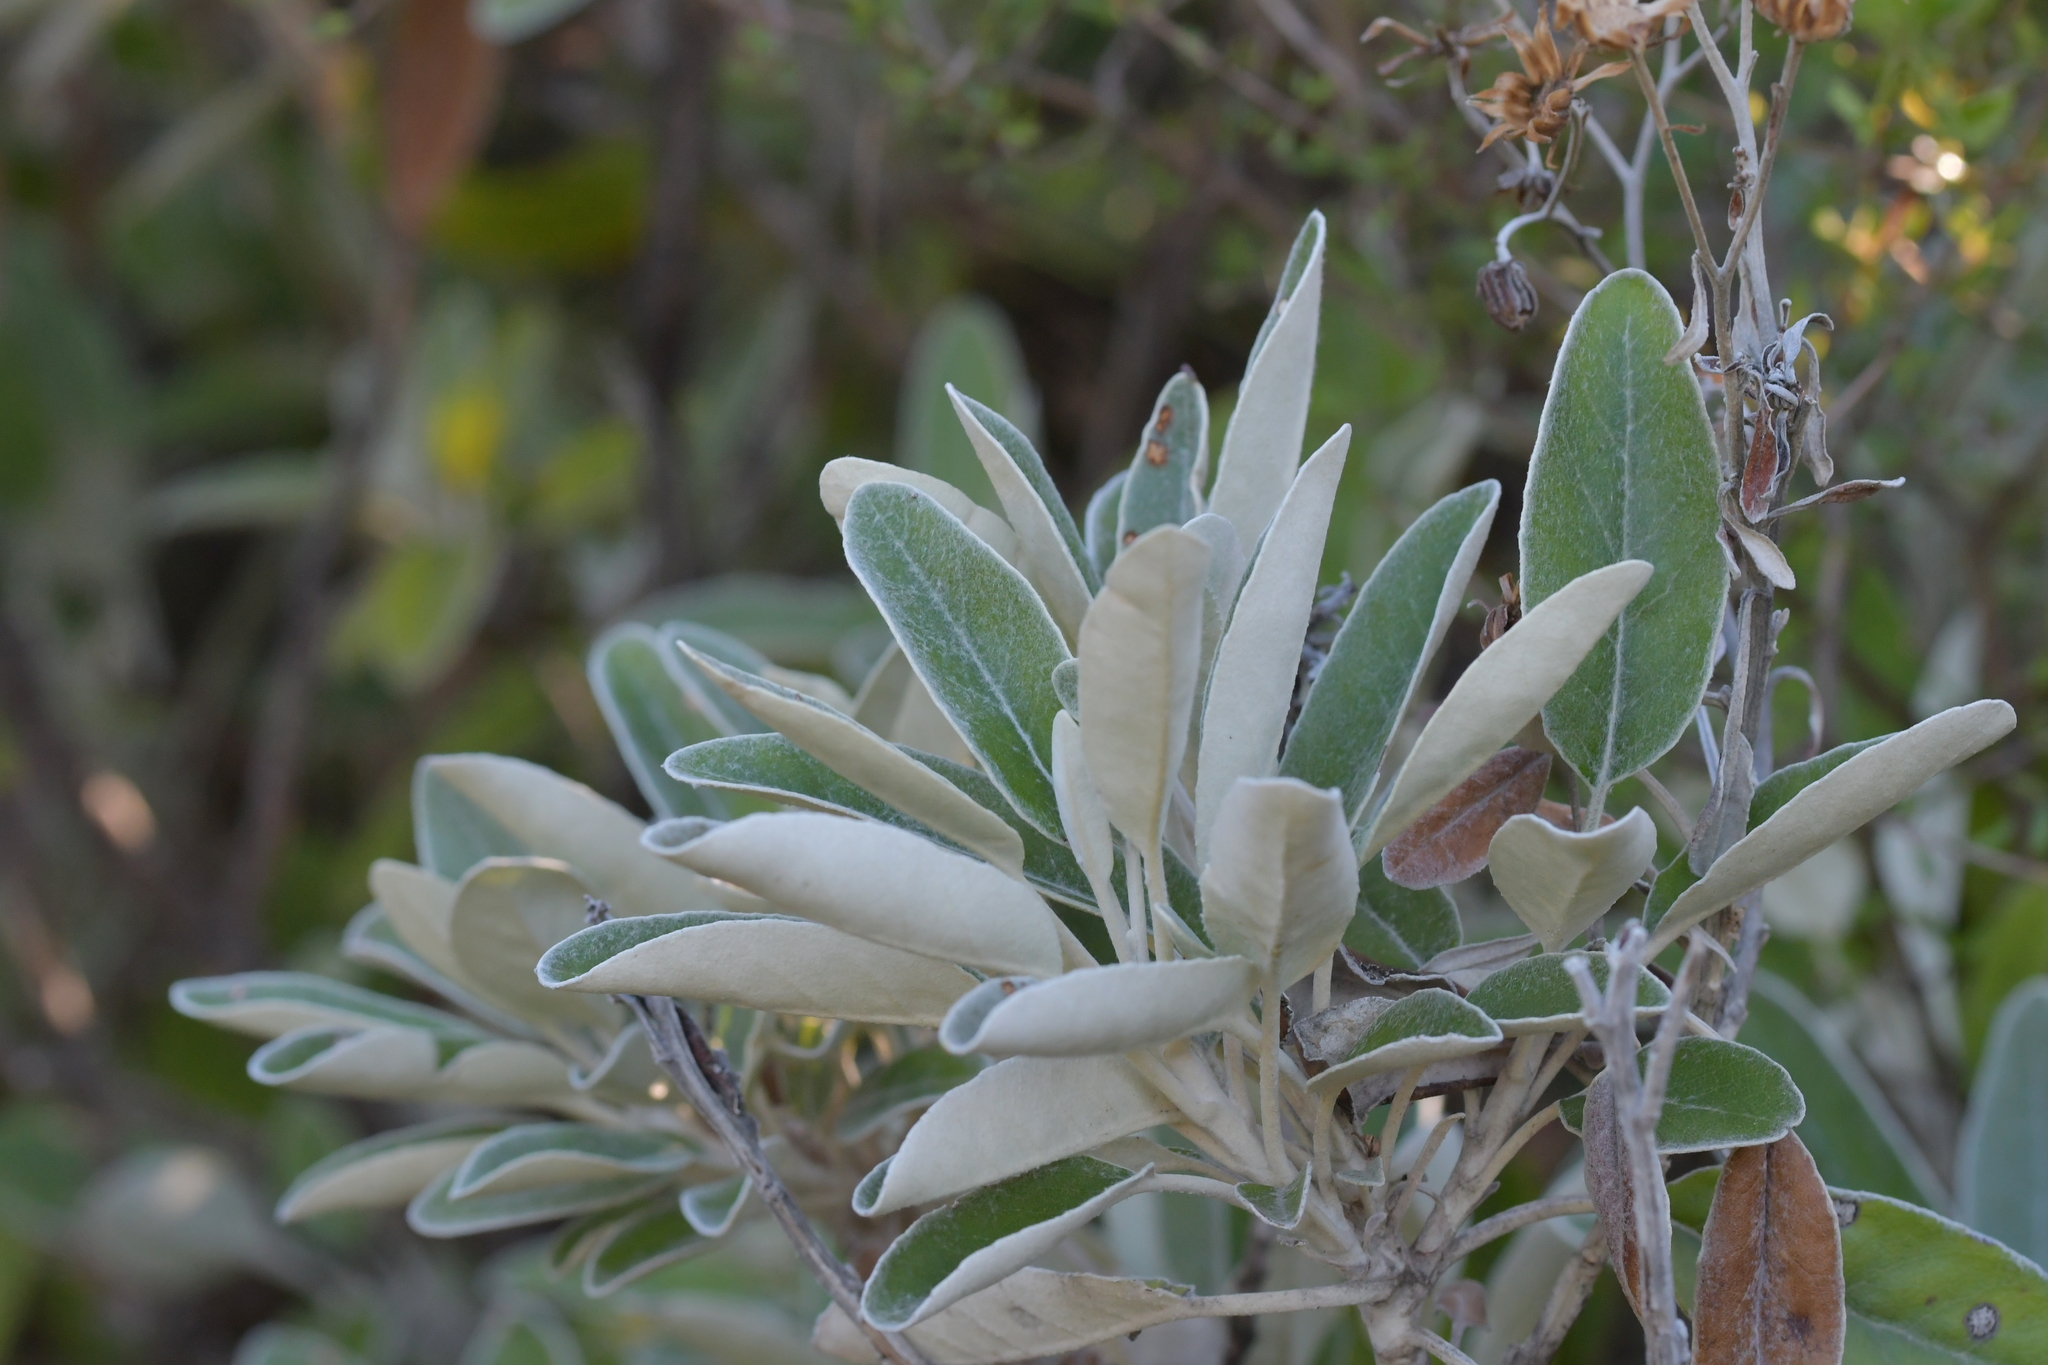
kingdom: Plantae
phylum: Tracheophyta
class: Magnoliopsida
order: Asterales
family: Asteraceae
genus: Brachyglottis
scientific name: Brachyglottis greyi
